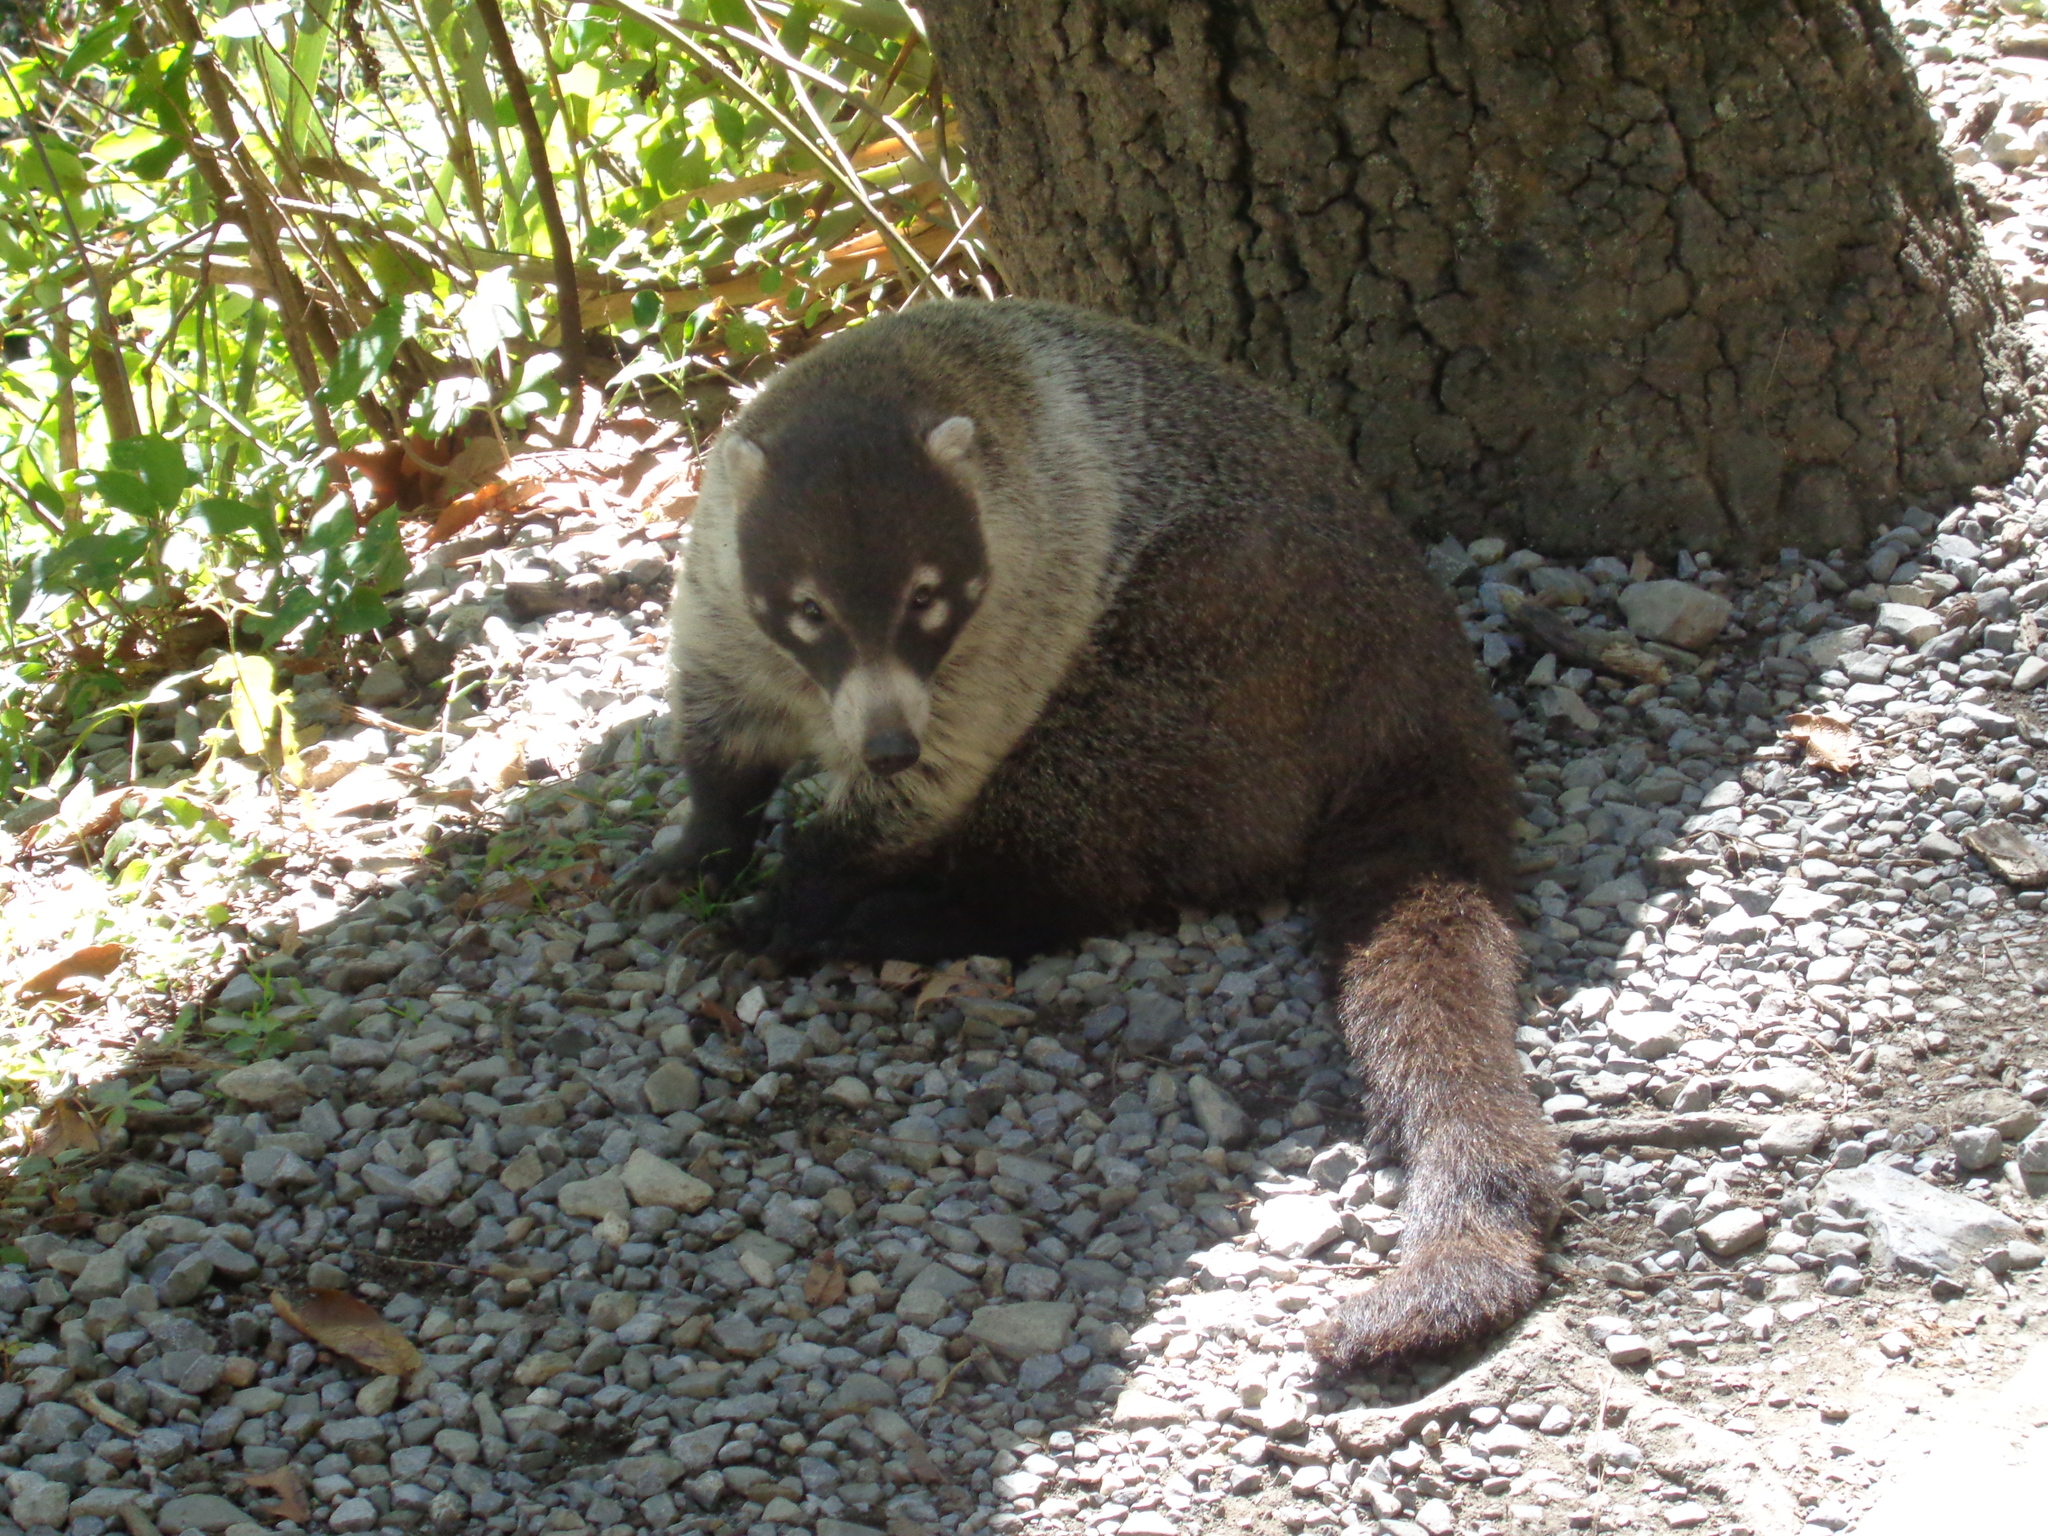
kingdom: Animalia
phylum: Chordata
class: Mammalia
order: Carnivora
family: Procyonidae
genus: Nasua
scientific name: Nasua narica
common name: White-nosed coati
